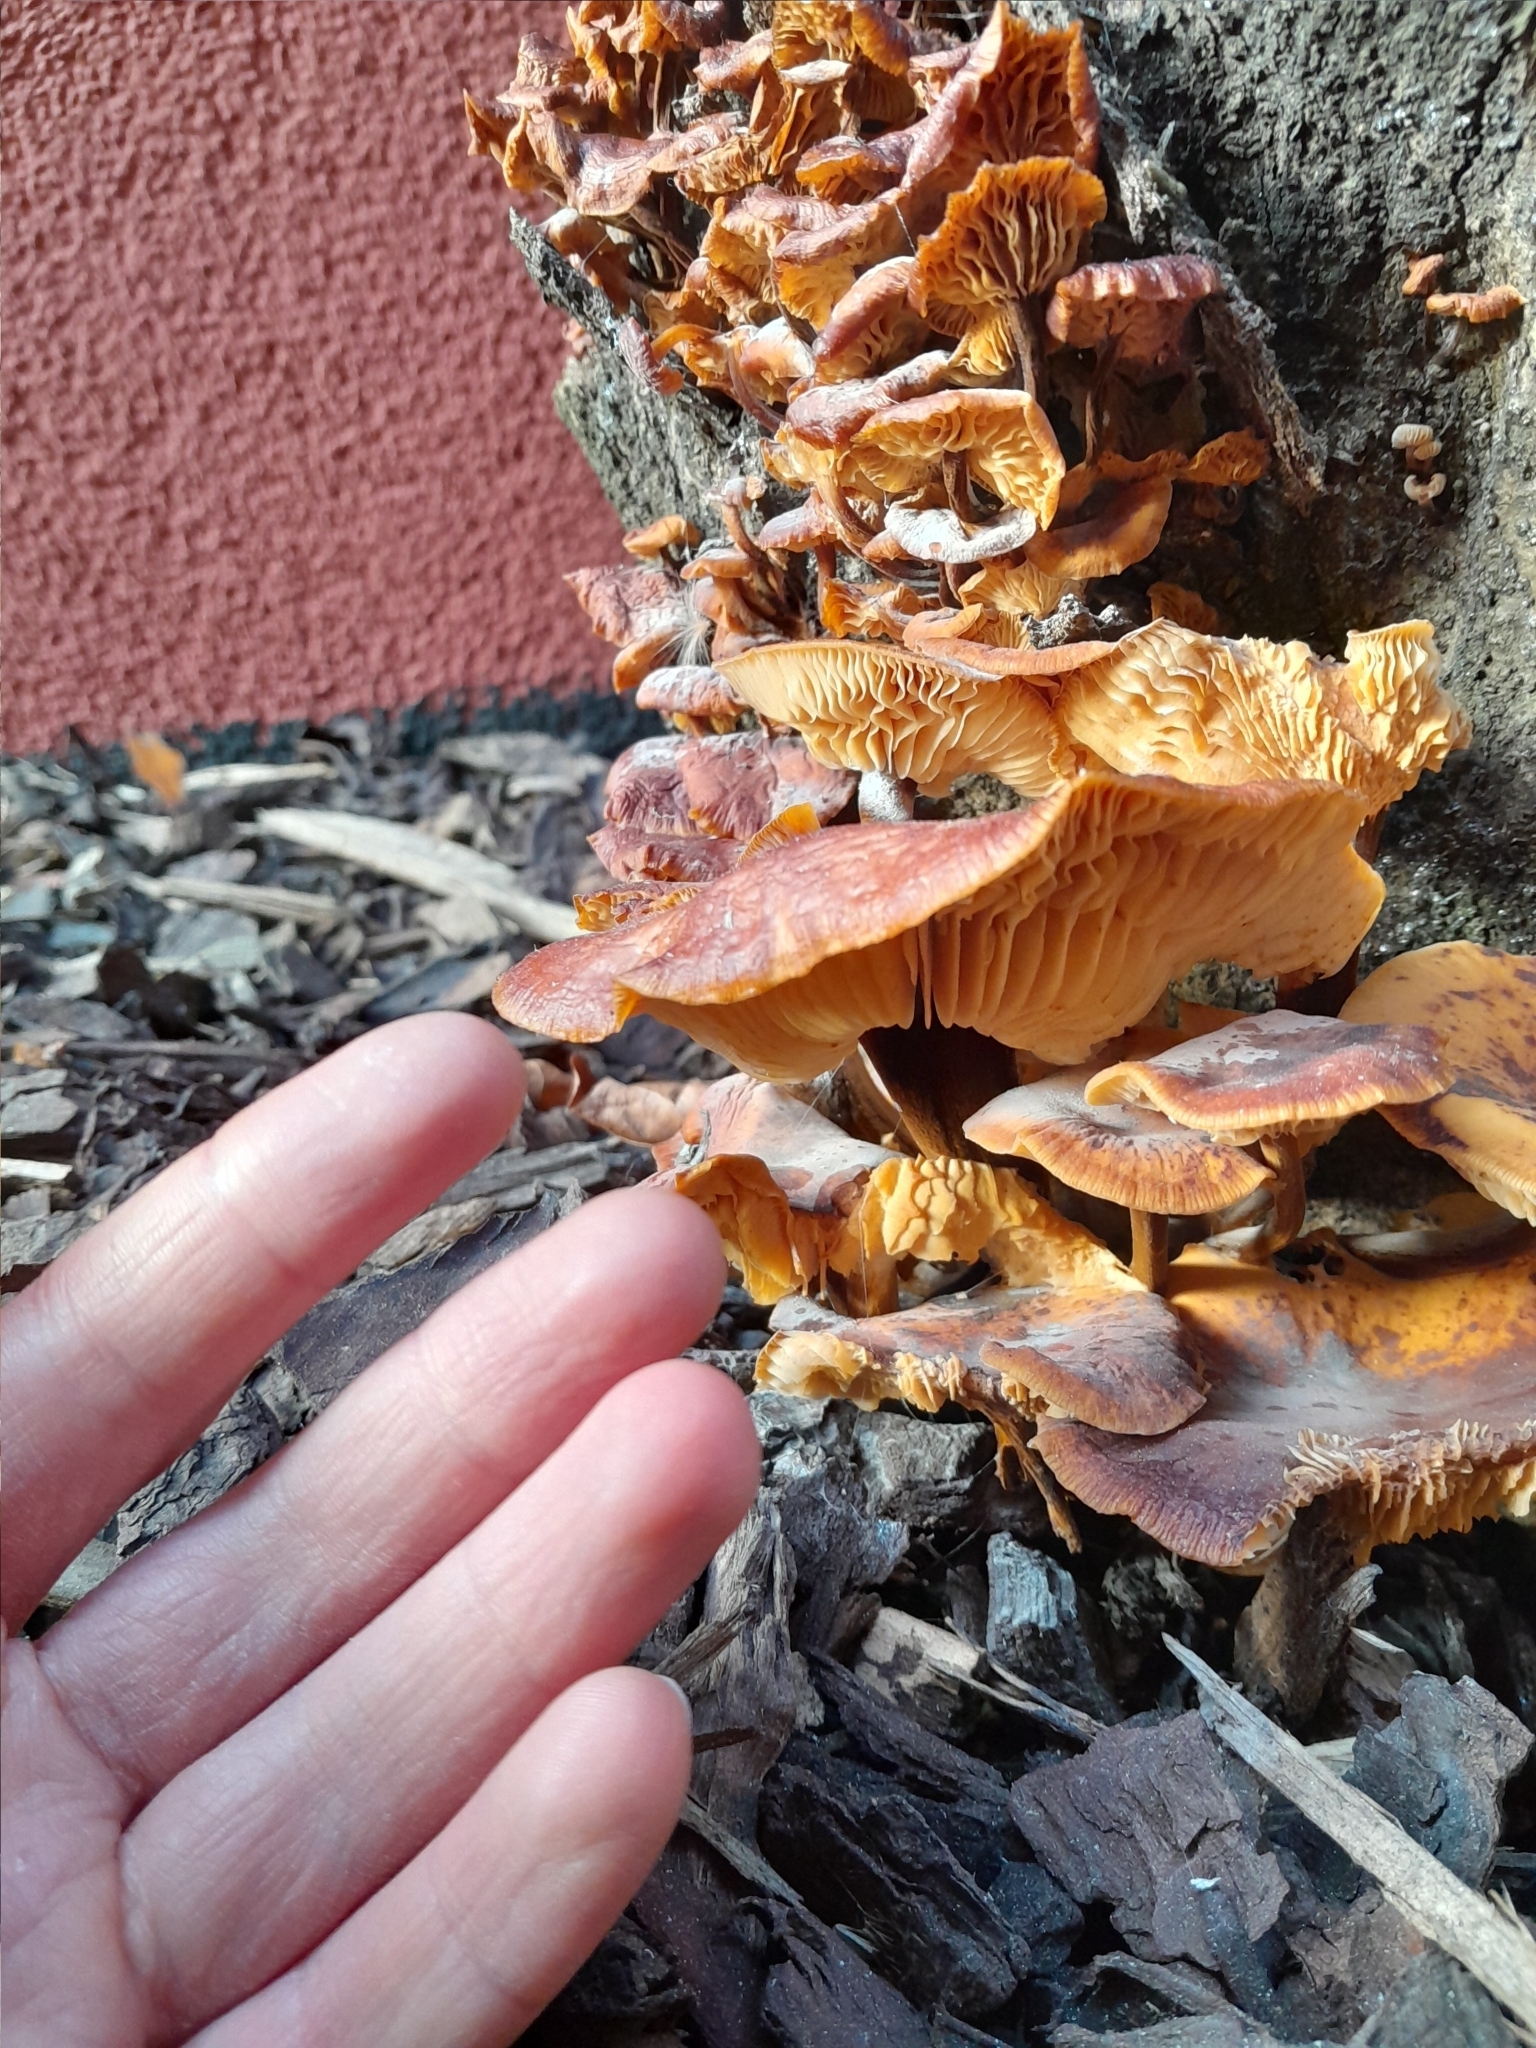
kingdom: Fungi
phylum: Basidiomycota
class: Agaricomycetes
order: Agaricales
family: Physalacriaceae
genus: Flammulina
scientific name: Flammulina velutipes
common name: Velvet shank
